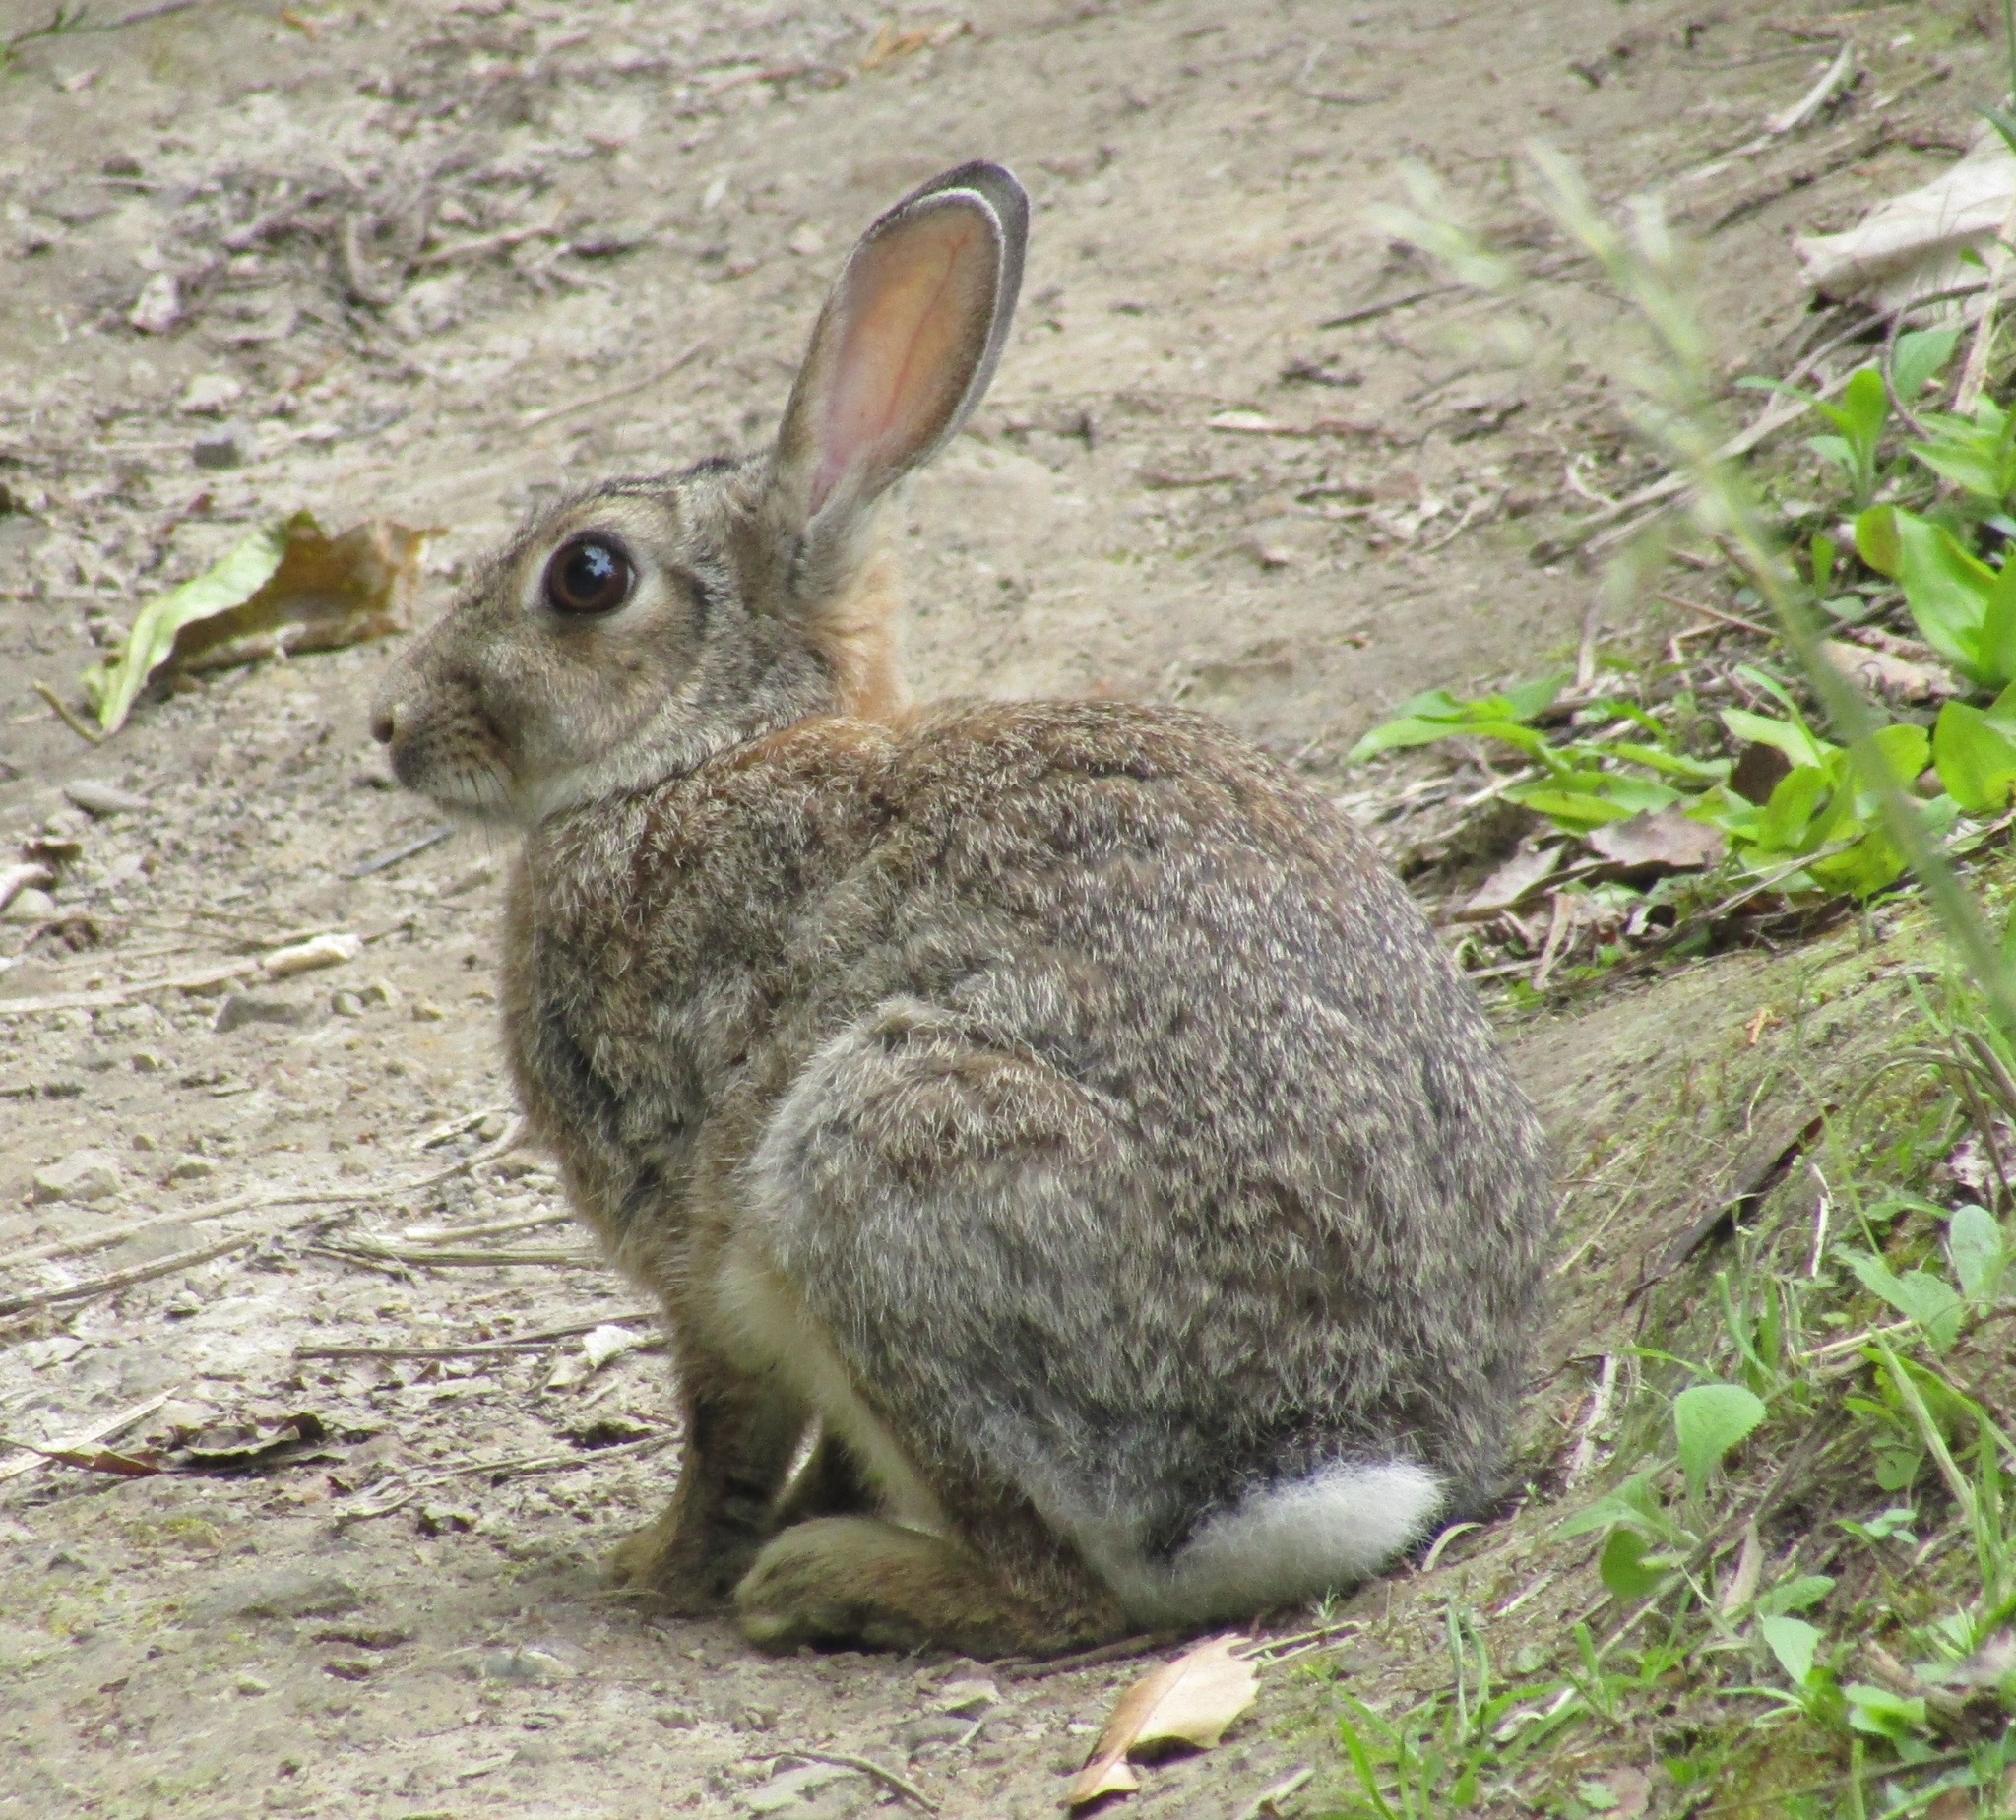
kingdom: Animalia
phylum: Chordata
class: Mammalia
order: Lagomorpha
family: Leporidae
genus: Oryctolagus
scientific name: Oryctolagus cuniculus
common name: European rabbit
